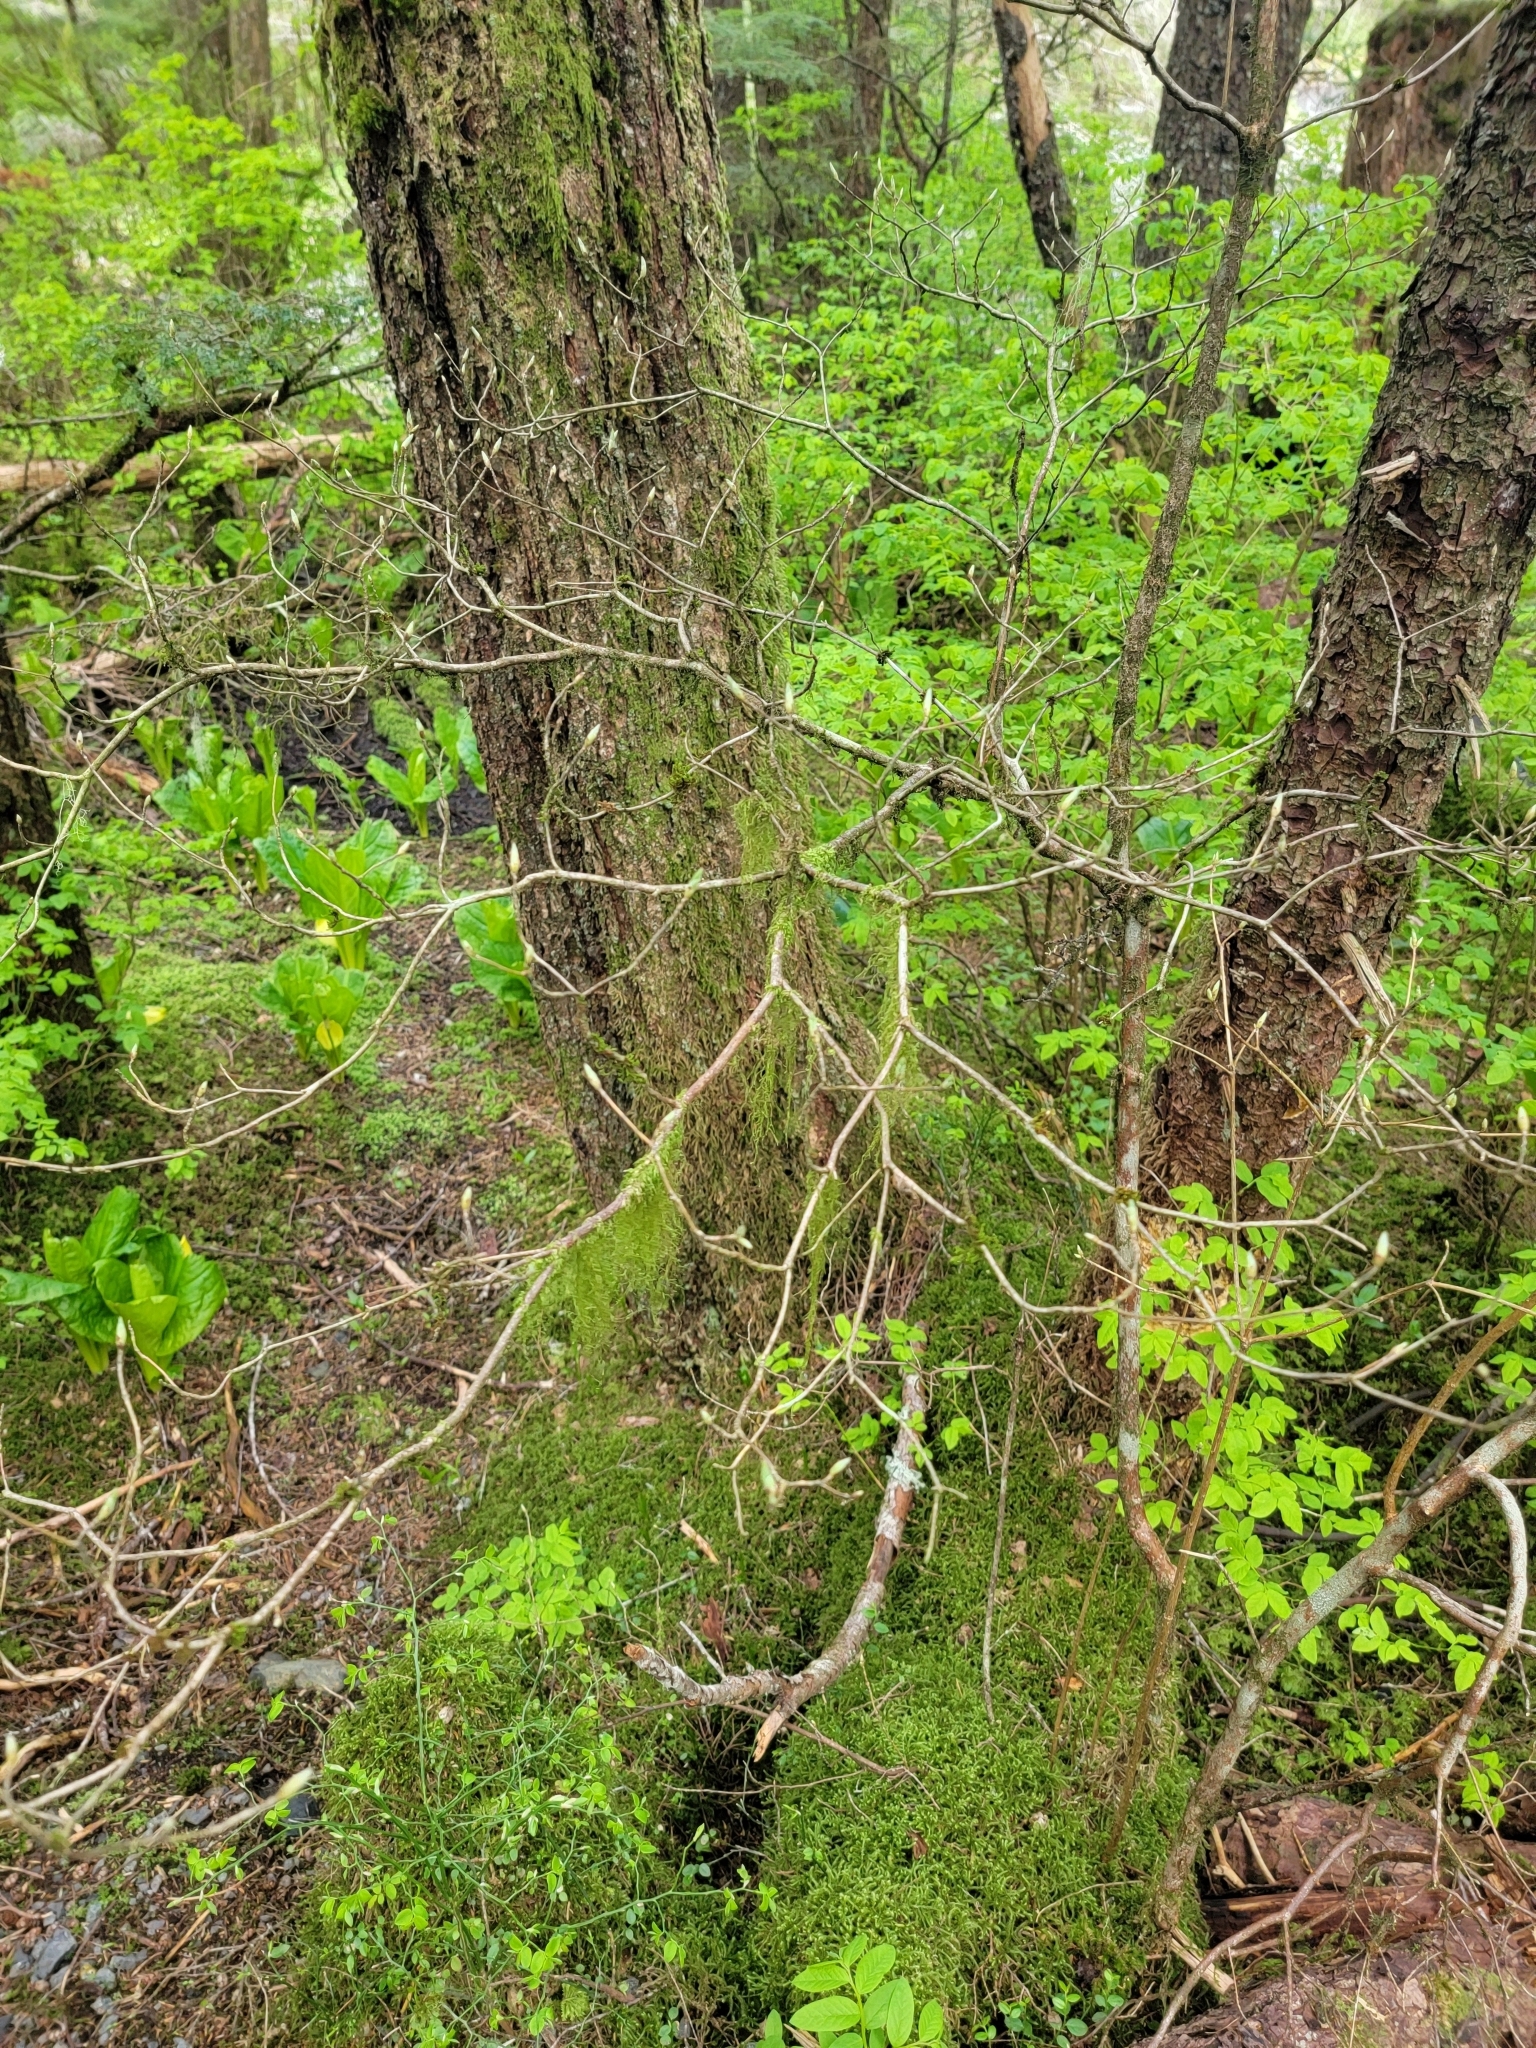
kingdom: Plantae
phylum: Tracheophyta
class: Magnoliopsida
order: Ericales
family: Ericaceae
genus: Rhododendron
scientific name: Rhododendron menziesii
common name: Pacific menziesia
